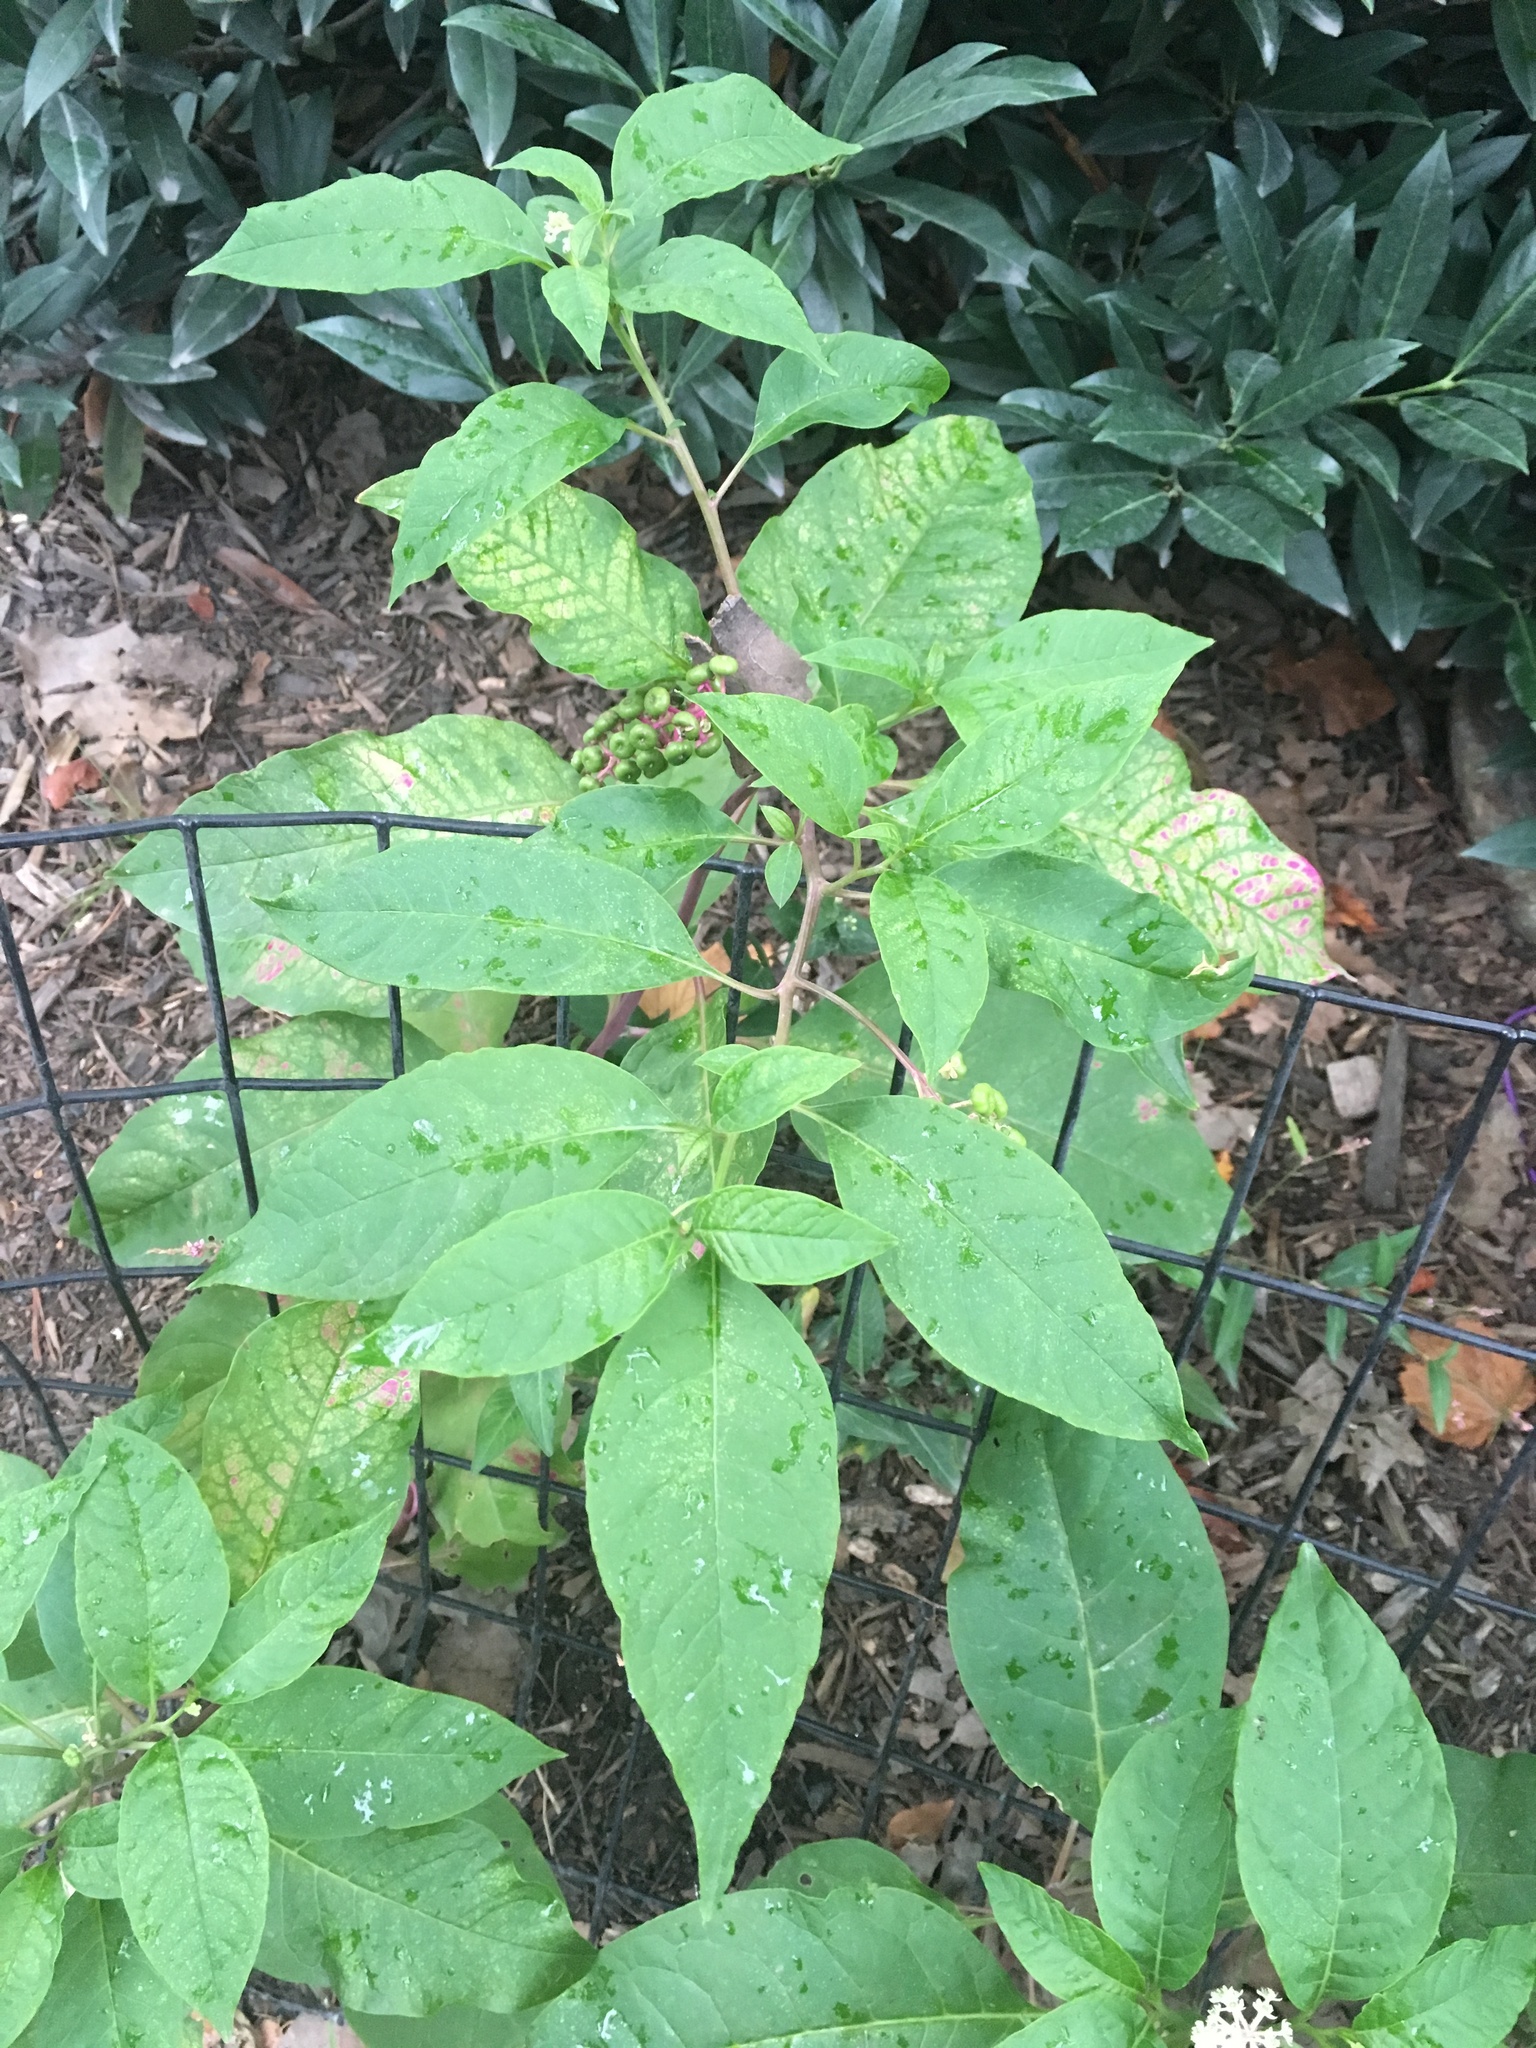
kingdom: Plantae
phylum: Tracheophyta
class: Magnoliopsida
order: Caryophyllales
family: Phytolaccaceae
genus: Phytolacca
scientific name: Phytolacca americana
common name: American pokeweed
